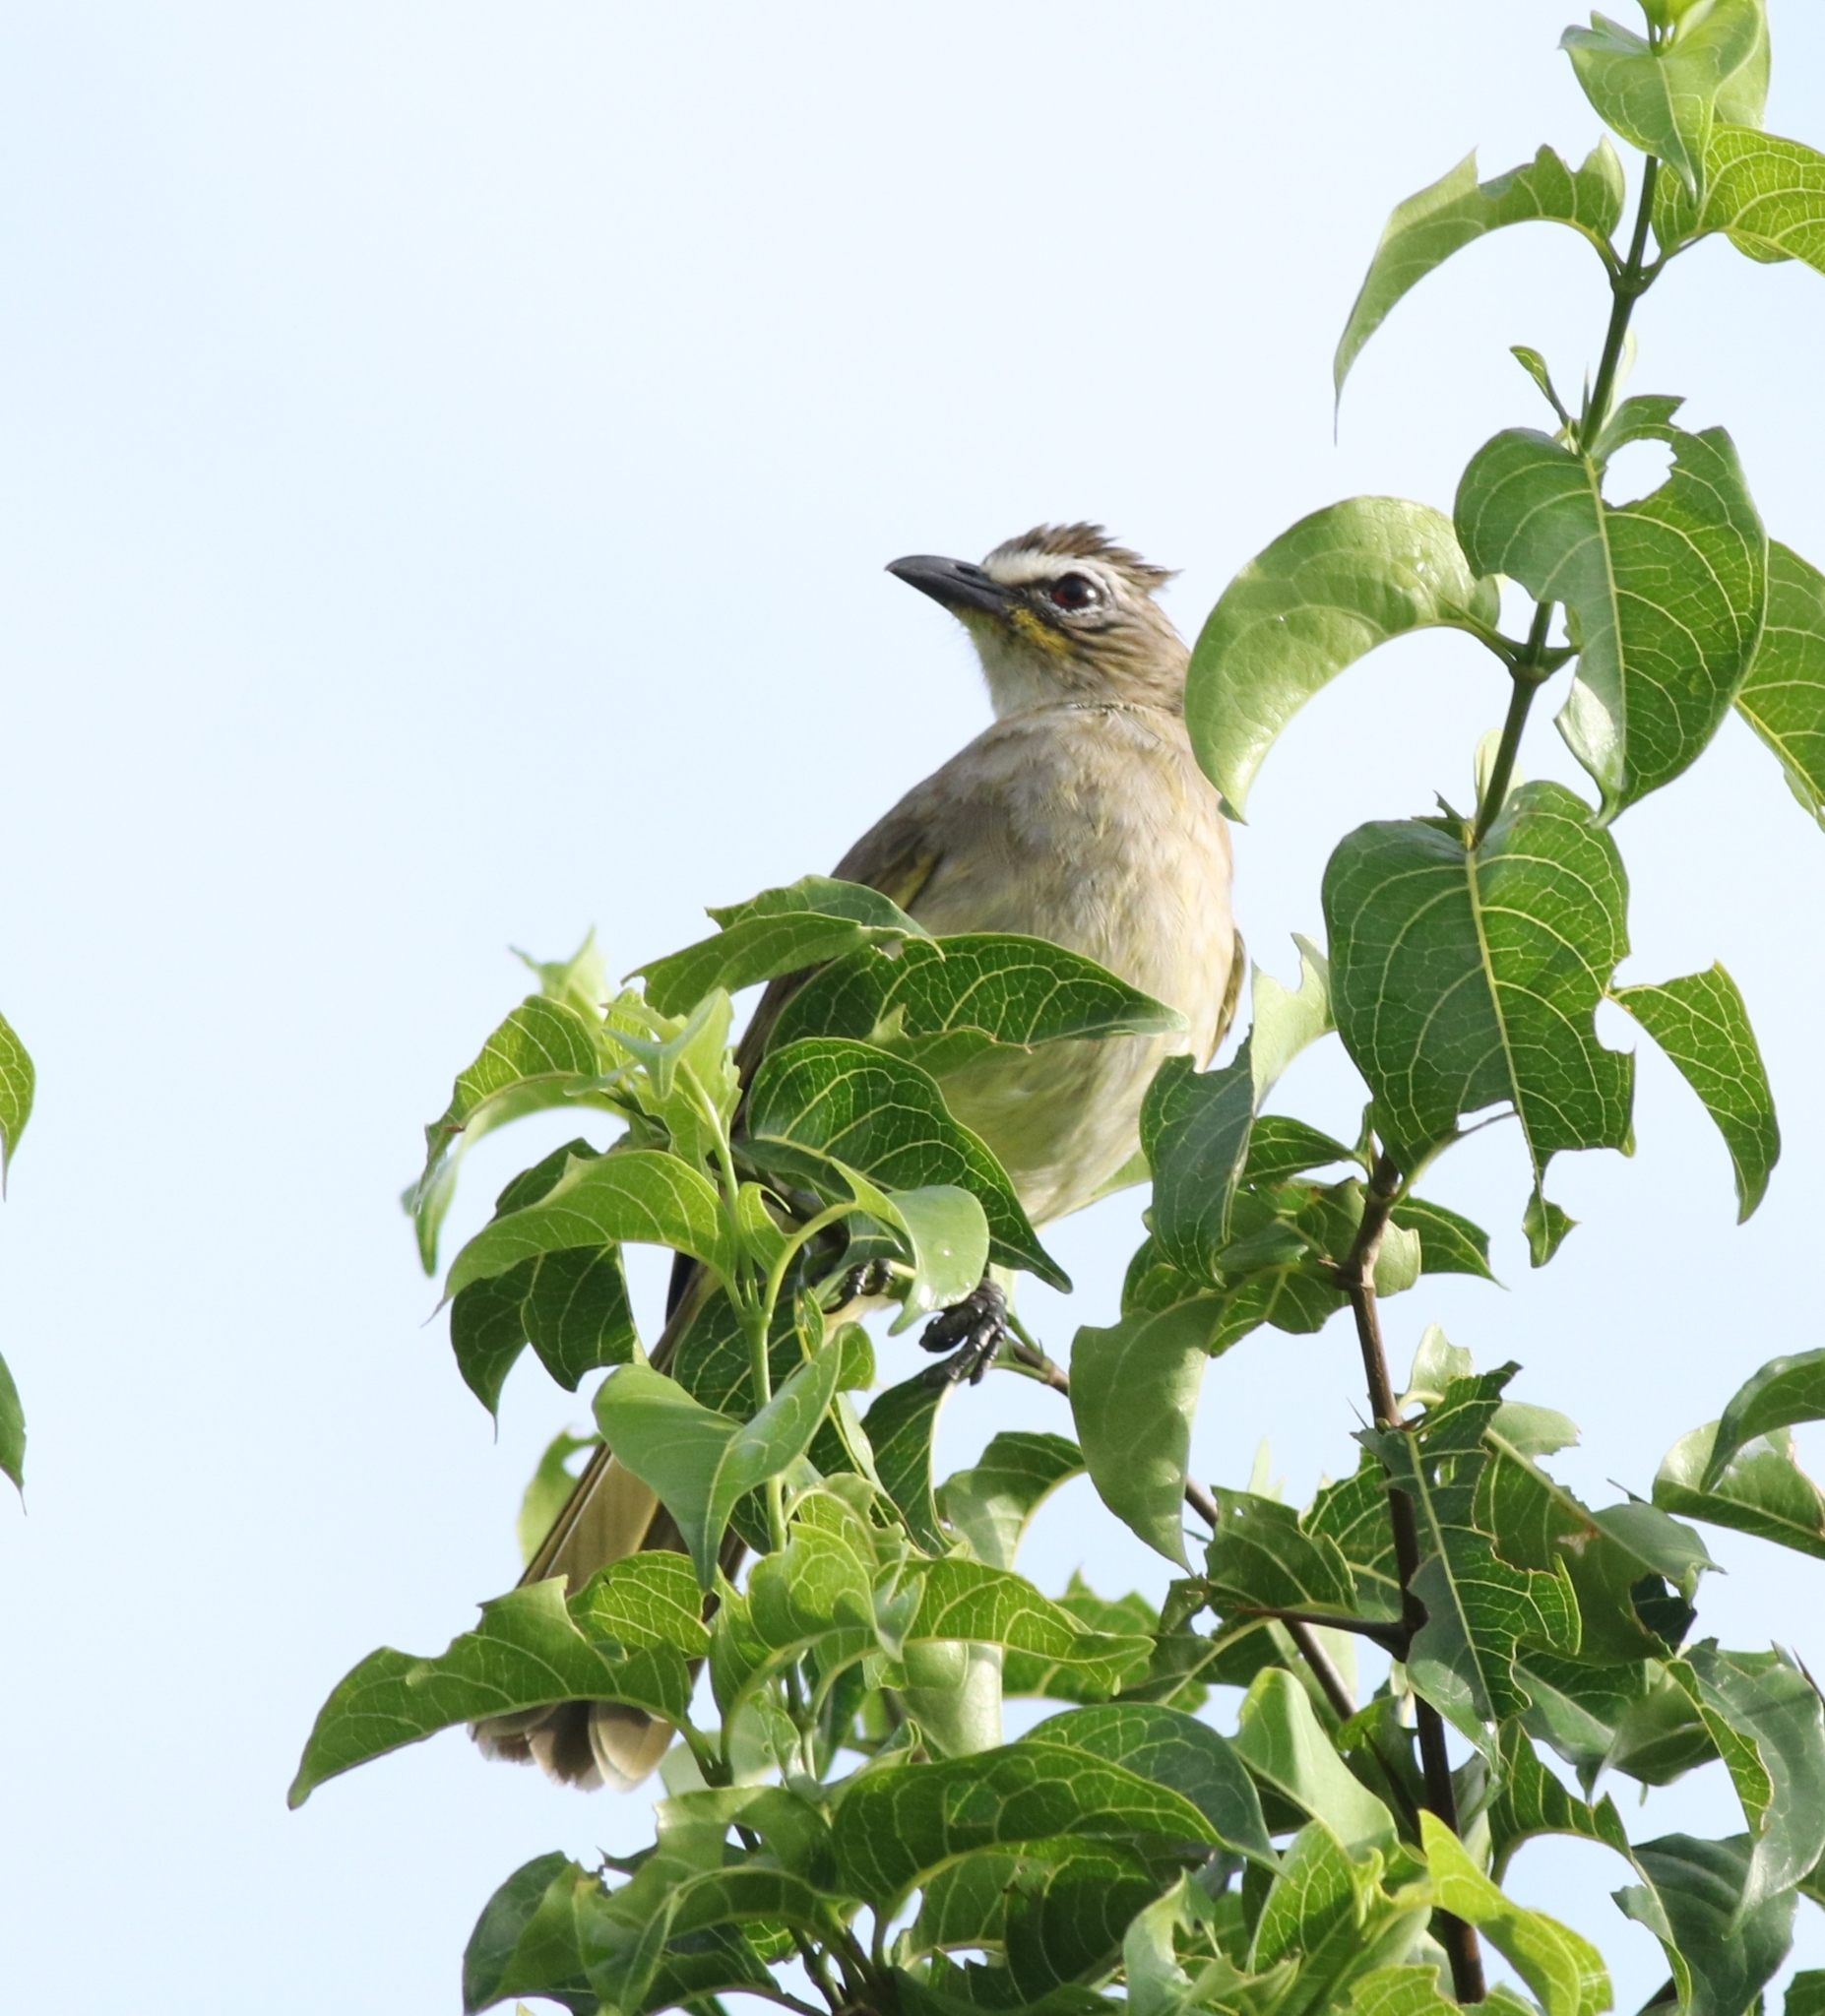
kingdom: Animalia
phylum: Chordata
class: Aves
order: Passeriformes
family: Pycnonotidae
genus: Pycnonotus
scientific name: Pycnonotus luteolus
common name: White-browed bulbul
